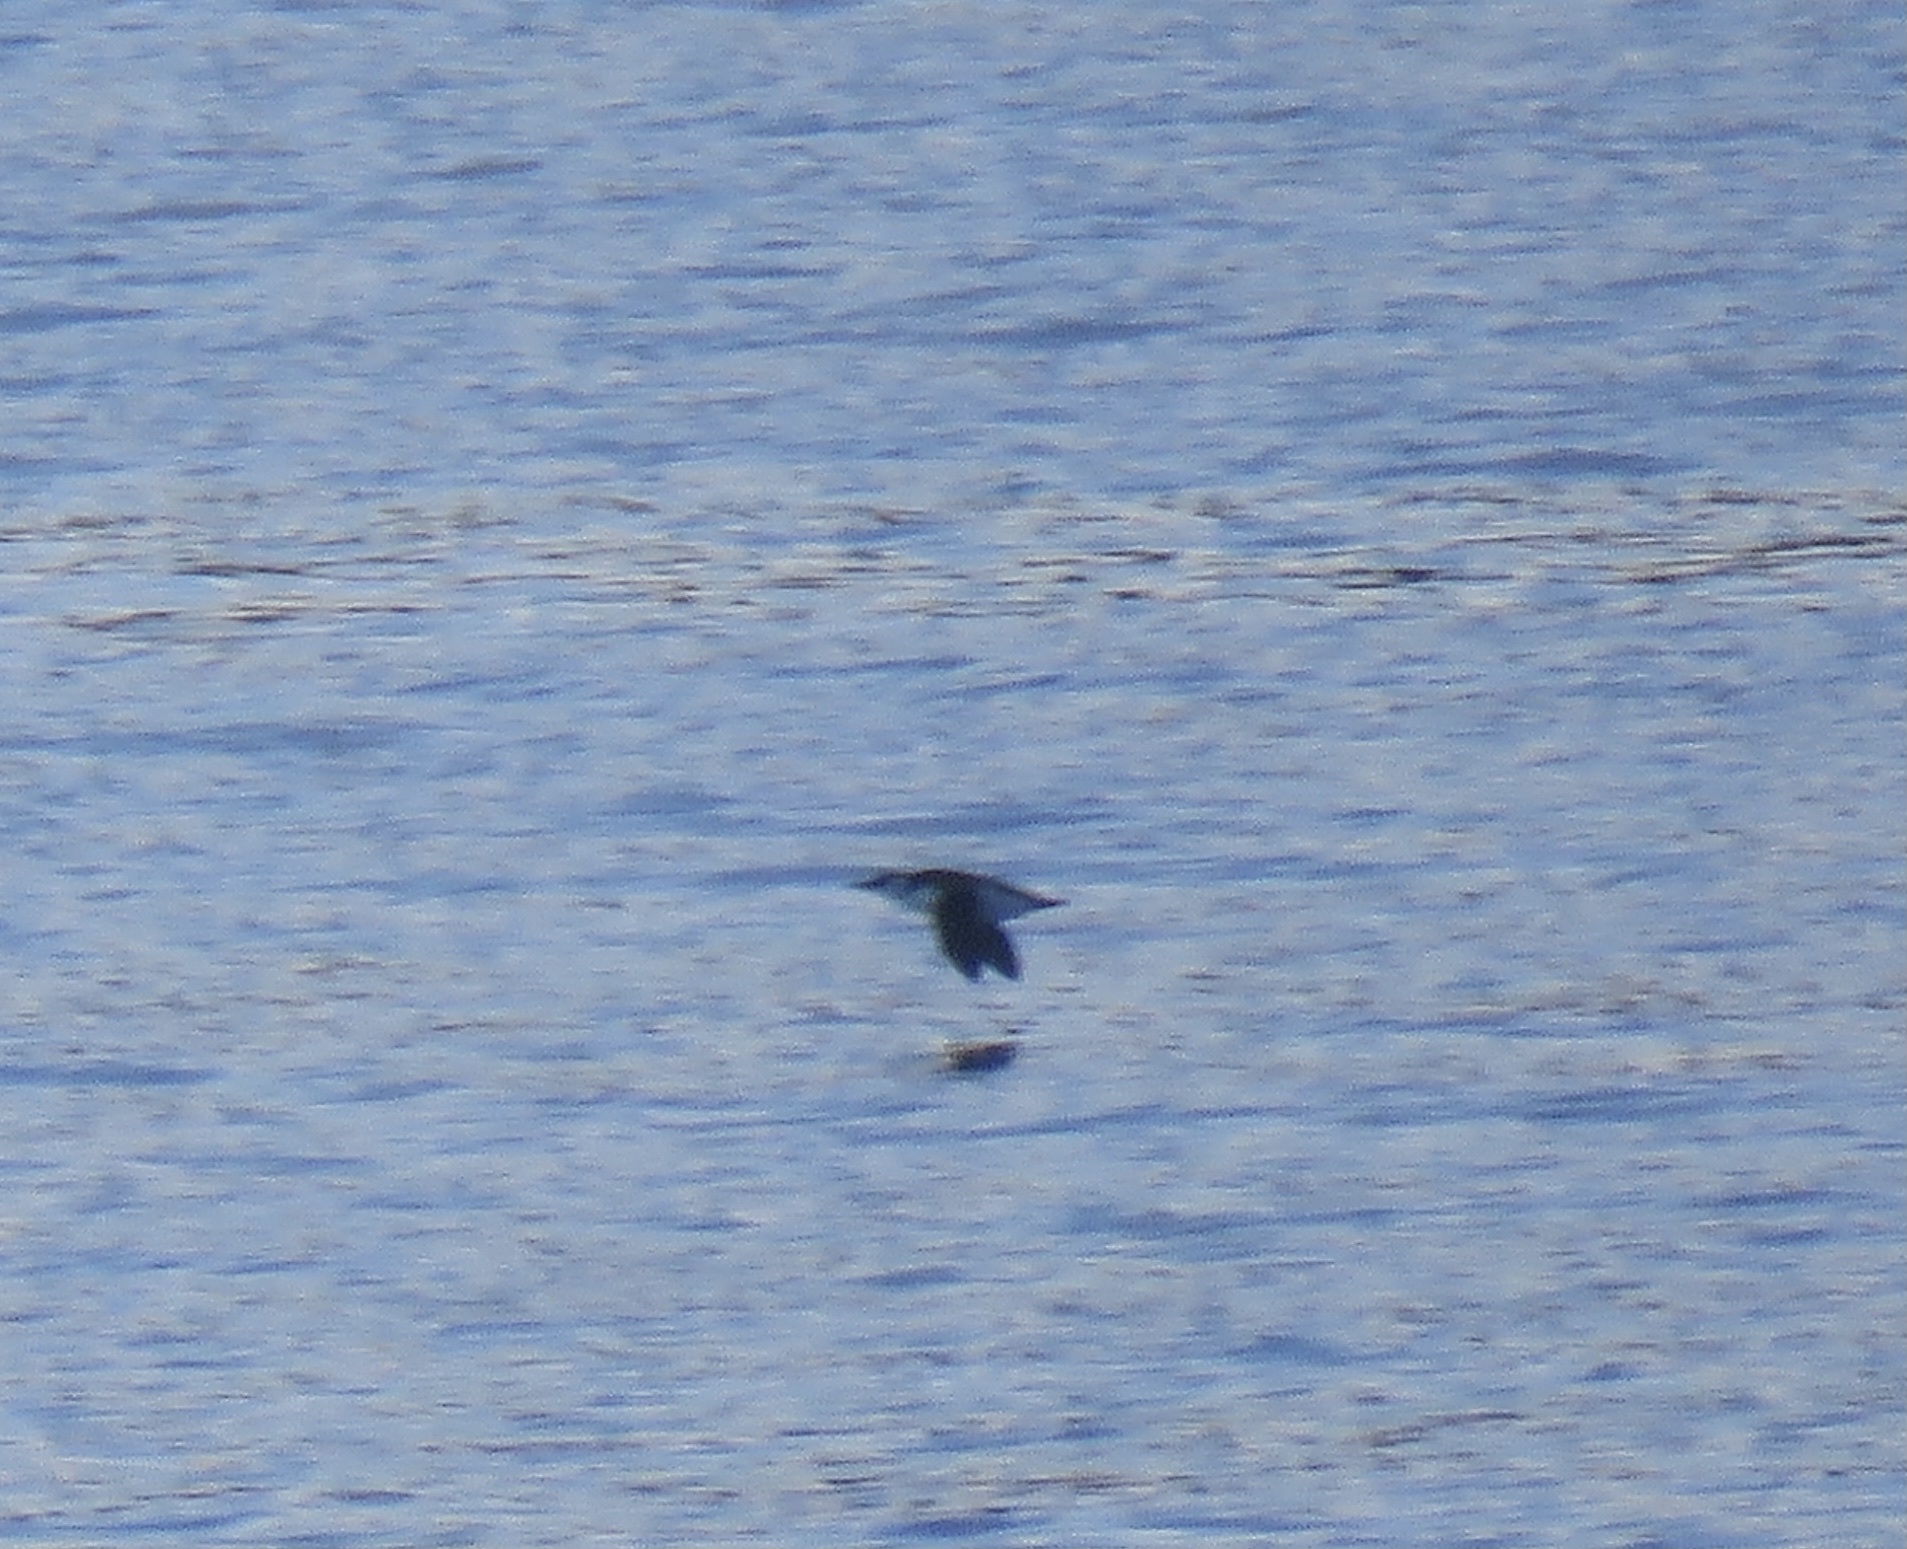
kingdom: Animalia
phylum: Chordata
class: Aves
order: Charadriiformes
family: Alcidae
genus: Uria
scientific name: Uria aalge
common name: Common murre
